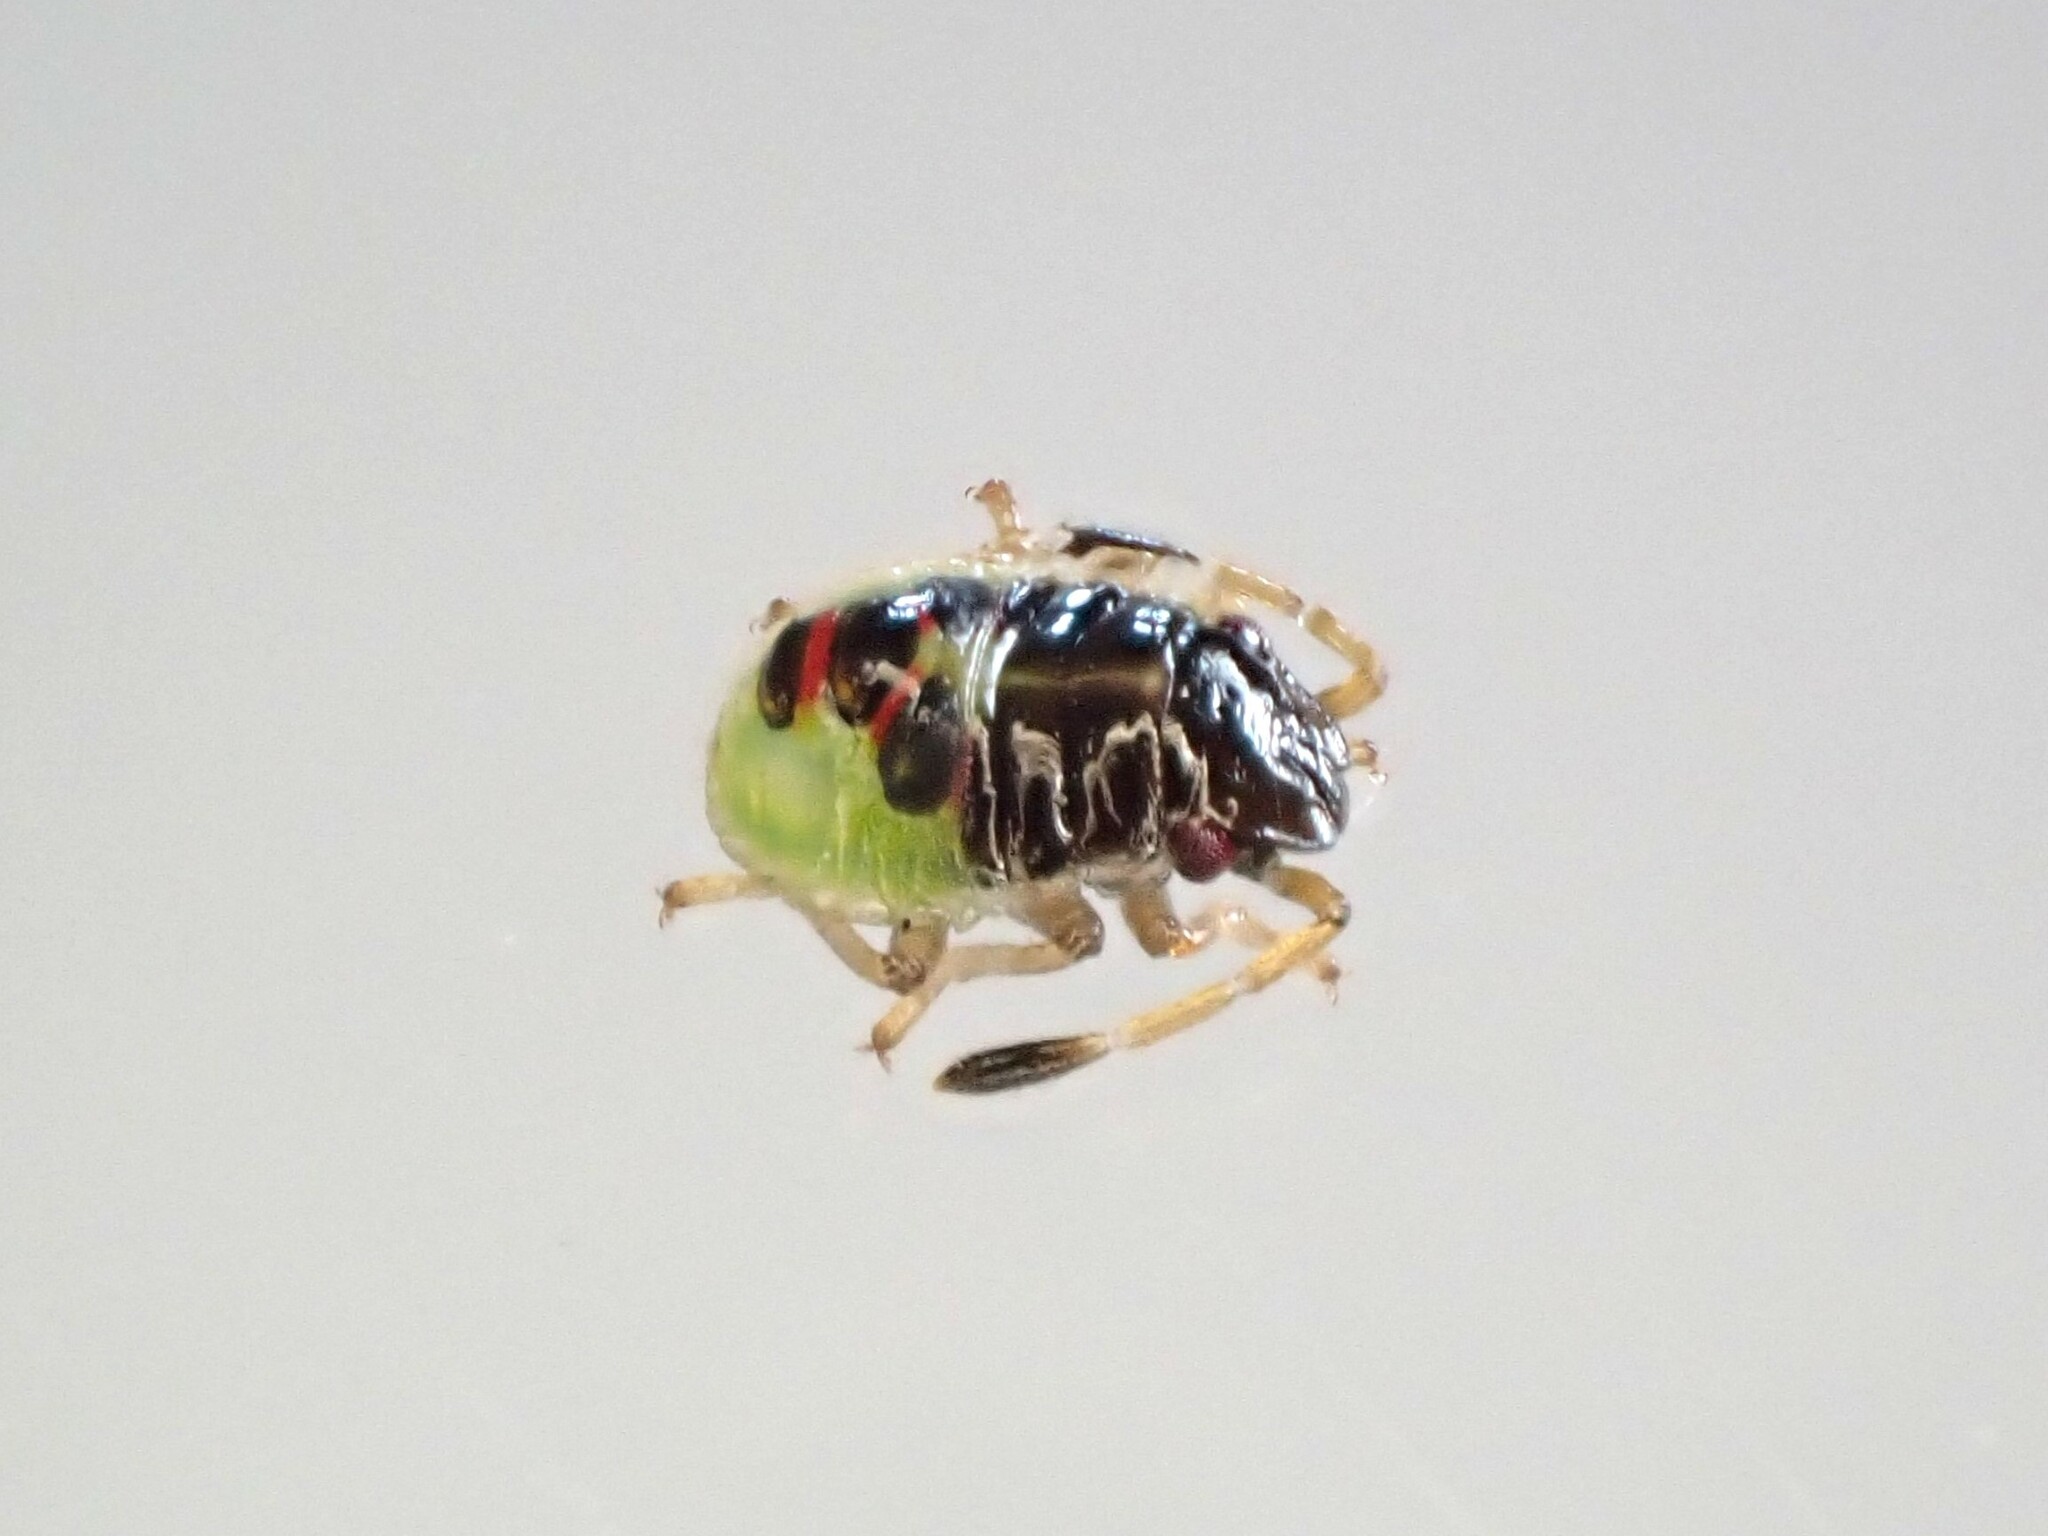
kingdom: Animalia
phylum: Arthropoda
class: Insecta
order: Hemiptera
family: Acanthosomatidae
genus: Oncacontias
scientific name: Oncacontias vittatus
